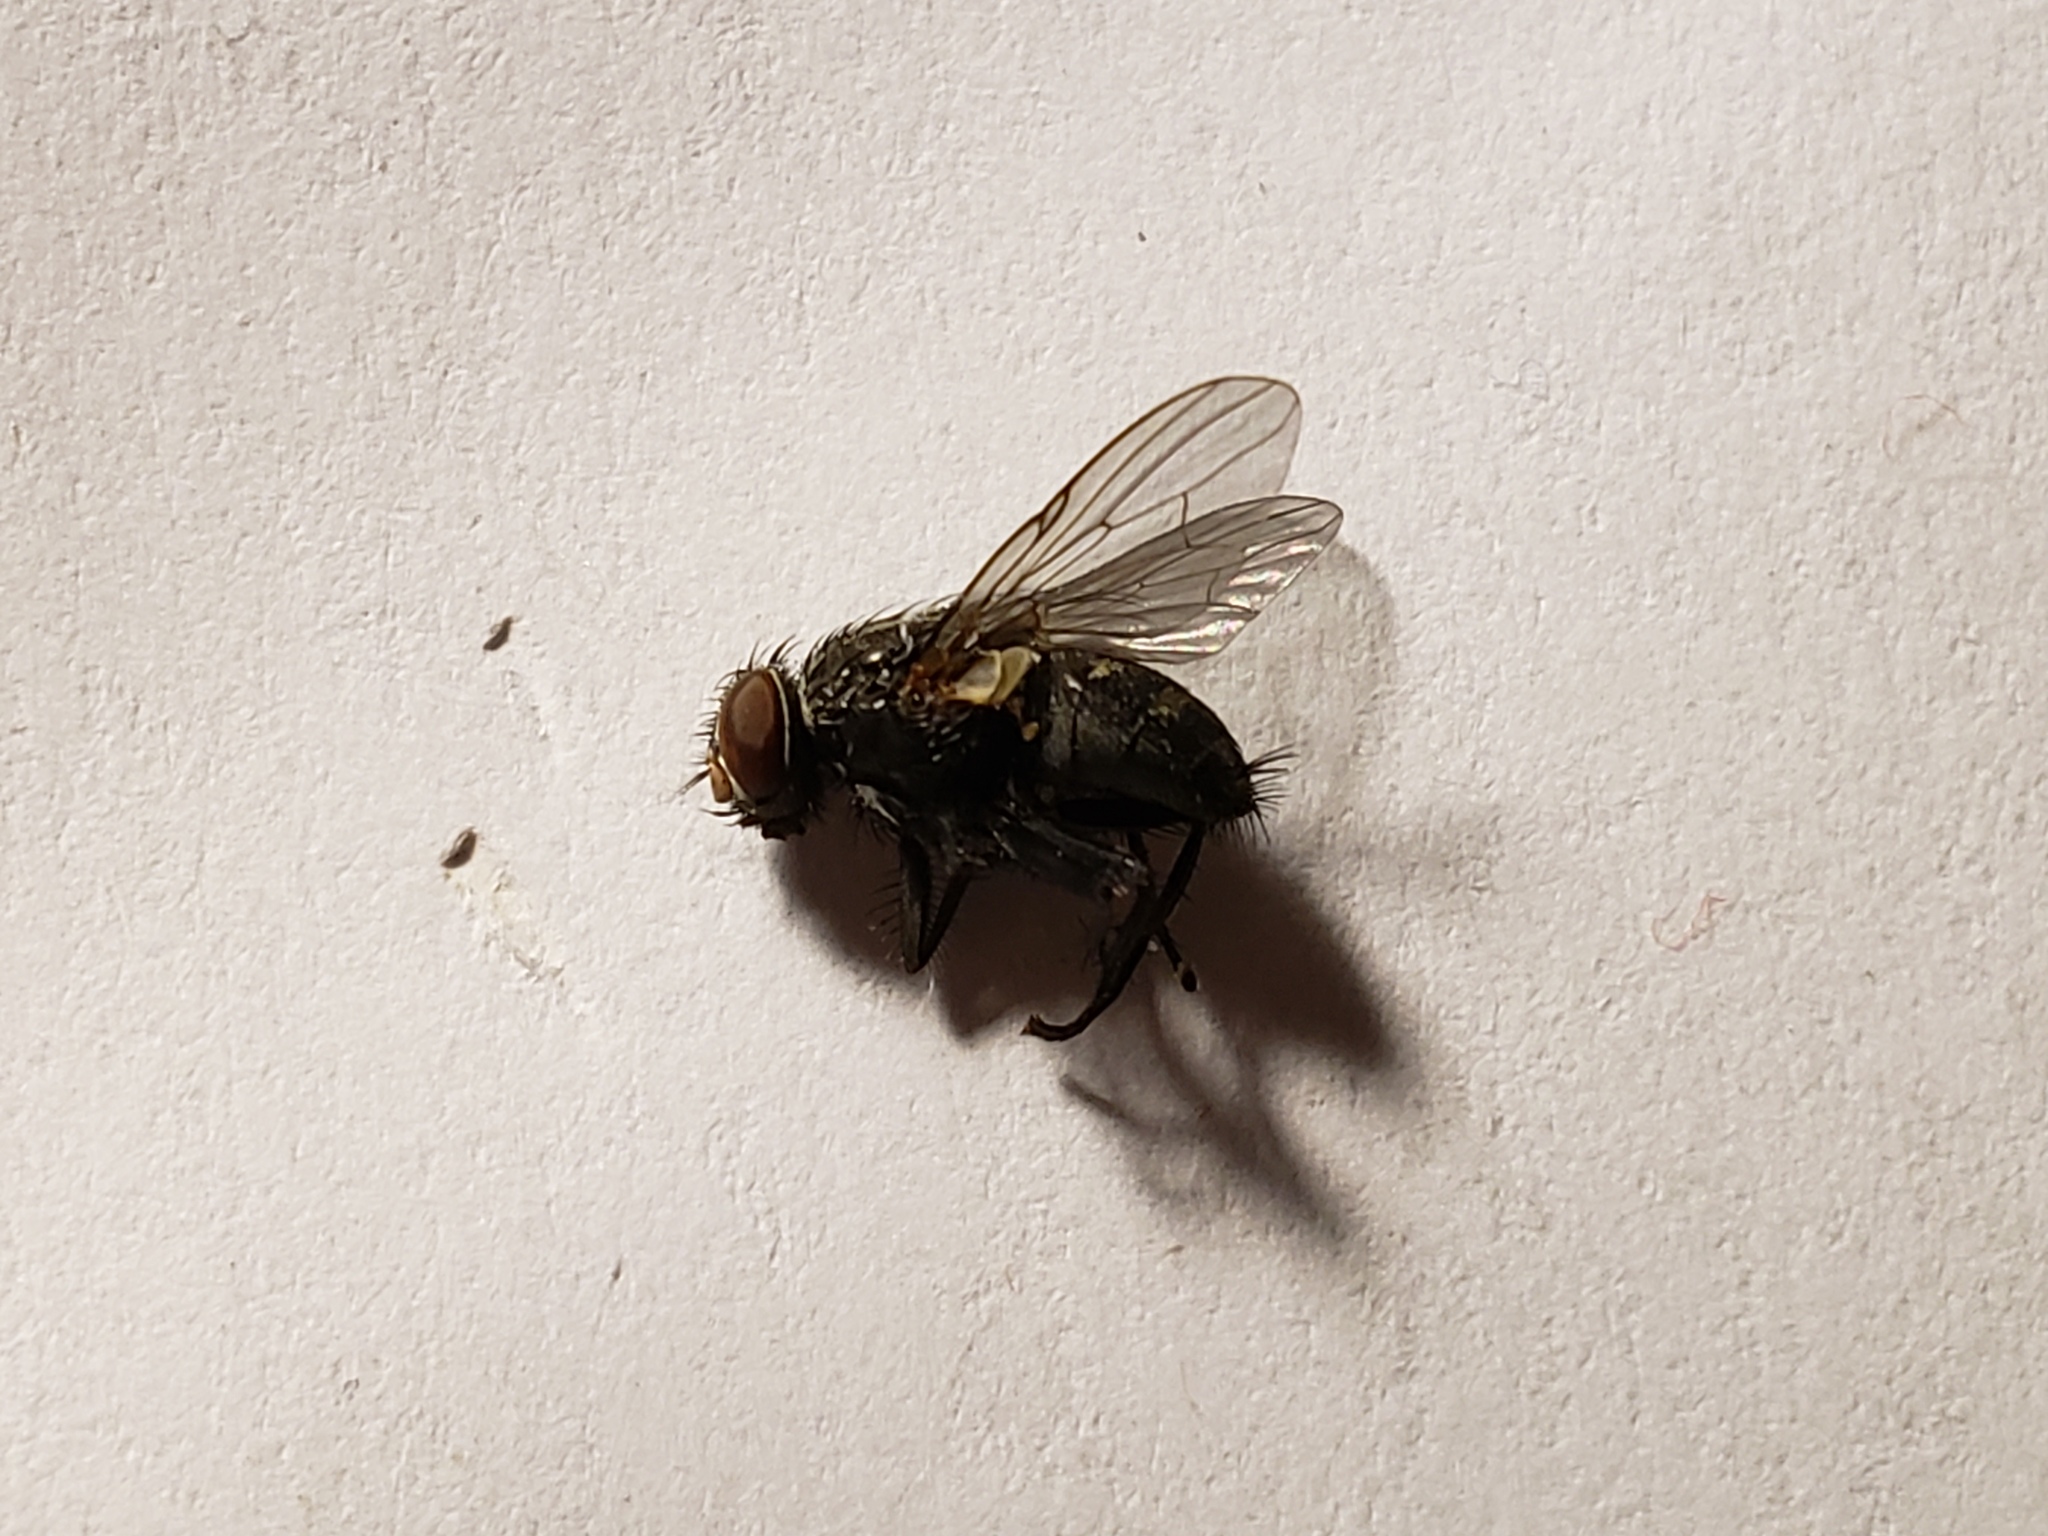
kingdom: Animalia
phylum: Arthropoda
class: Insecta
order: Diptera
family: Muscidae
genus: Muscina
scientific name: Muscina dorsilinea
